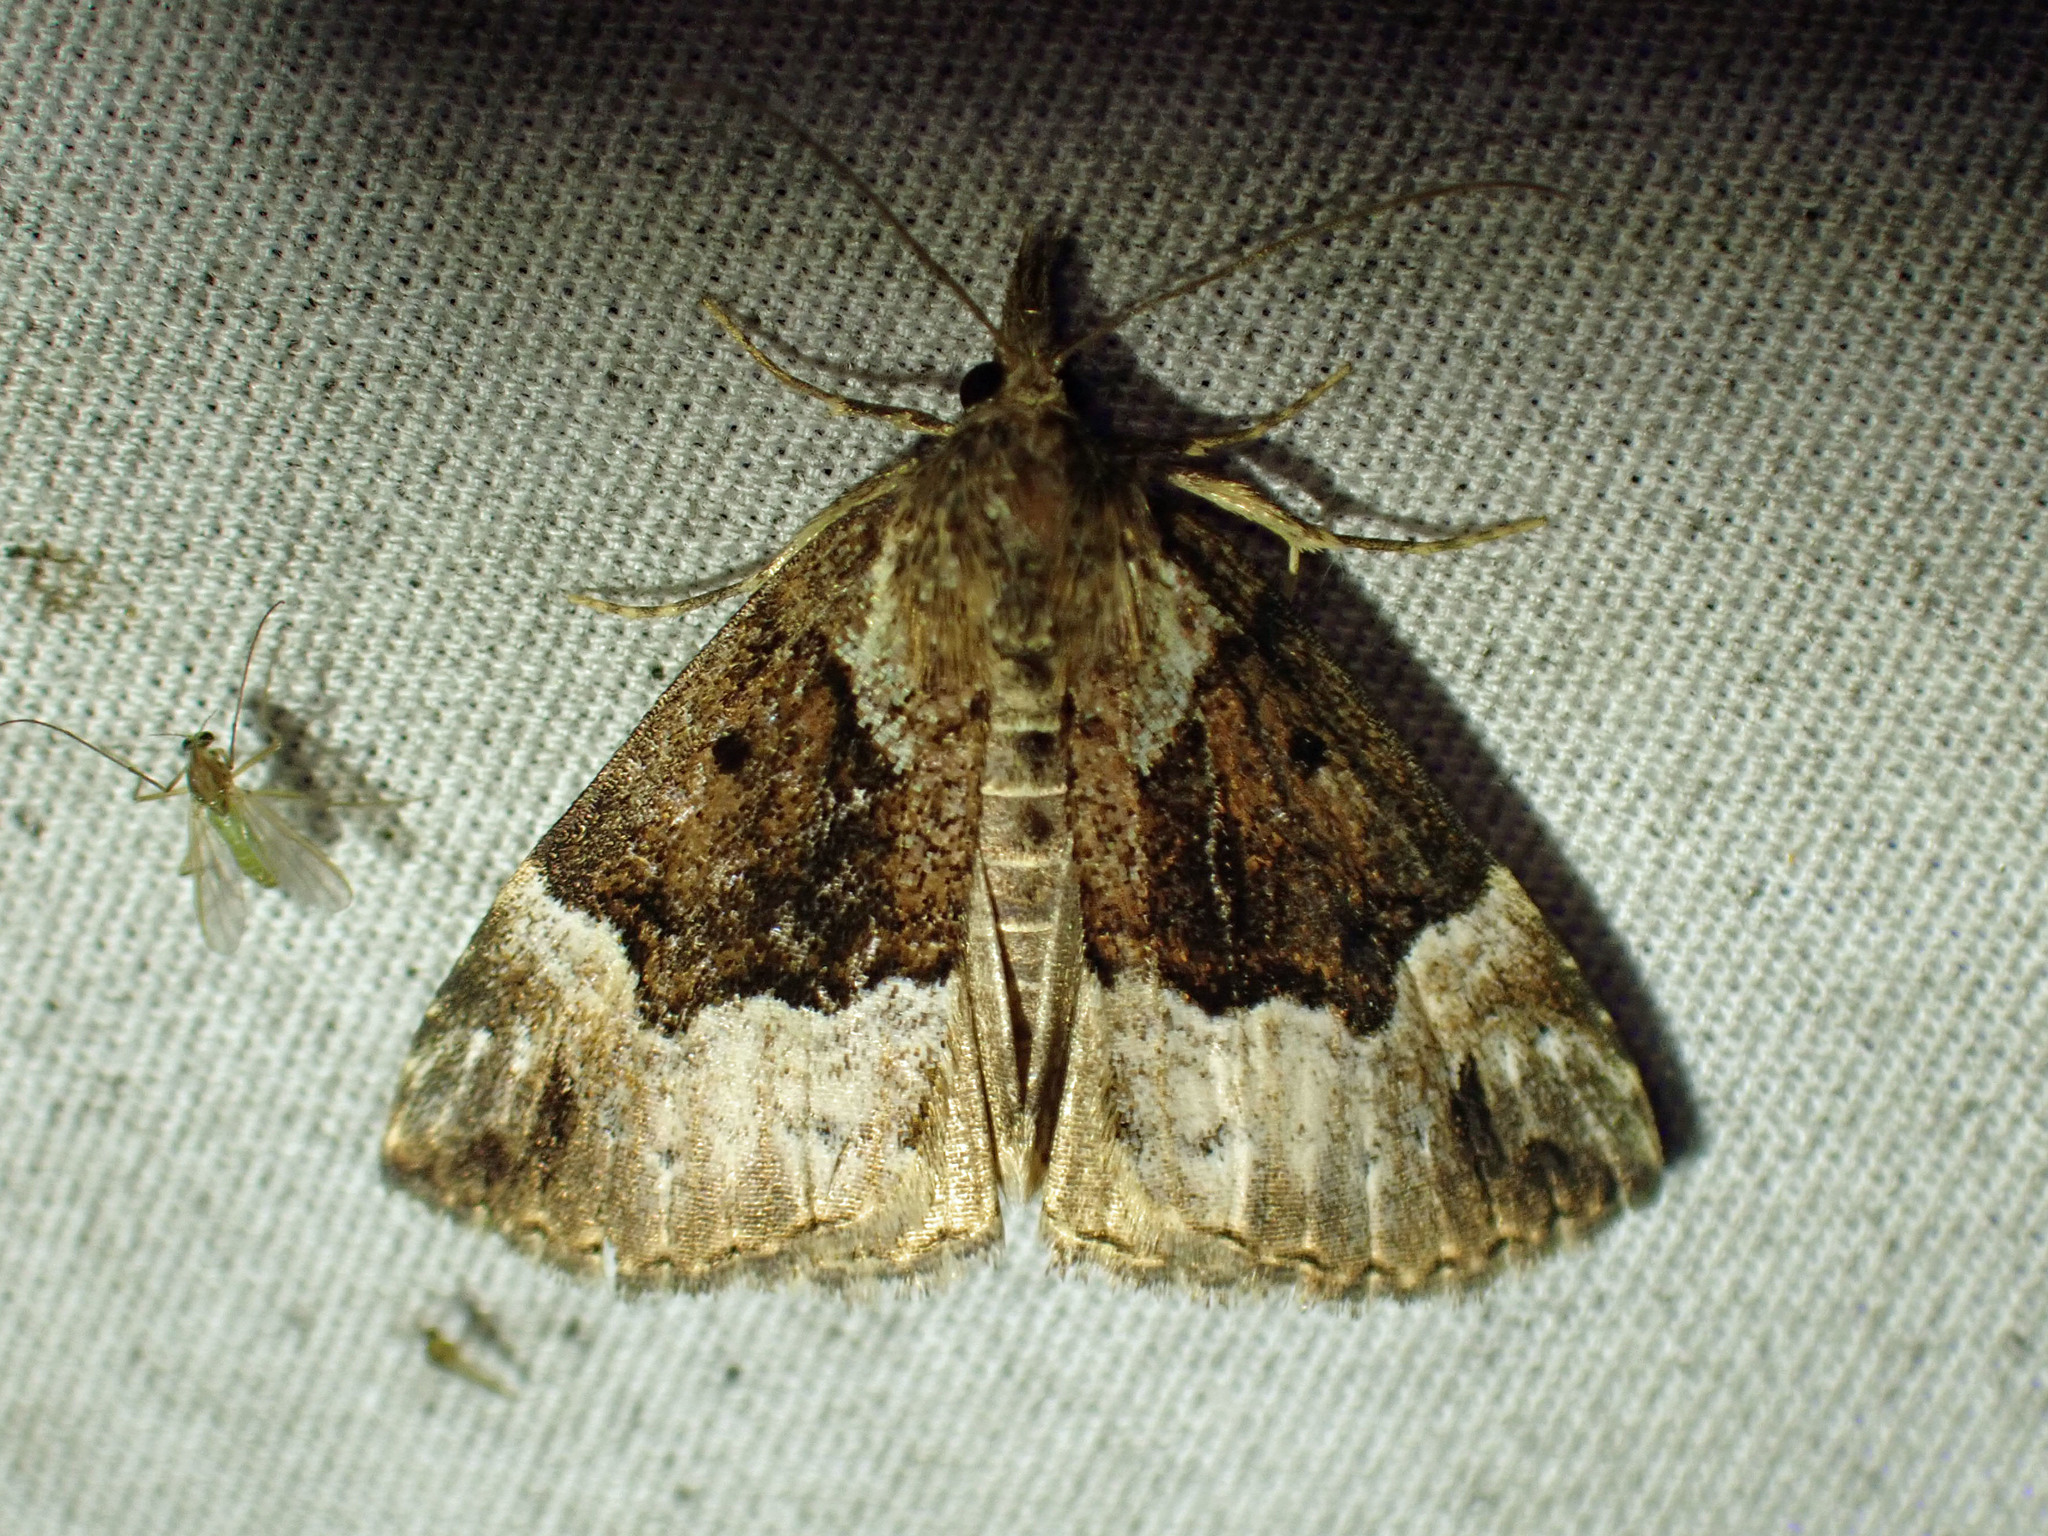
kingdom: Animalia
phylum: Arthropoda
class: Insecta
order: Lepidoptera
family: Erebidae
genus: Hypena
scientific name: Hypena palparia
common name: Mottled bomolocha moth
